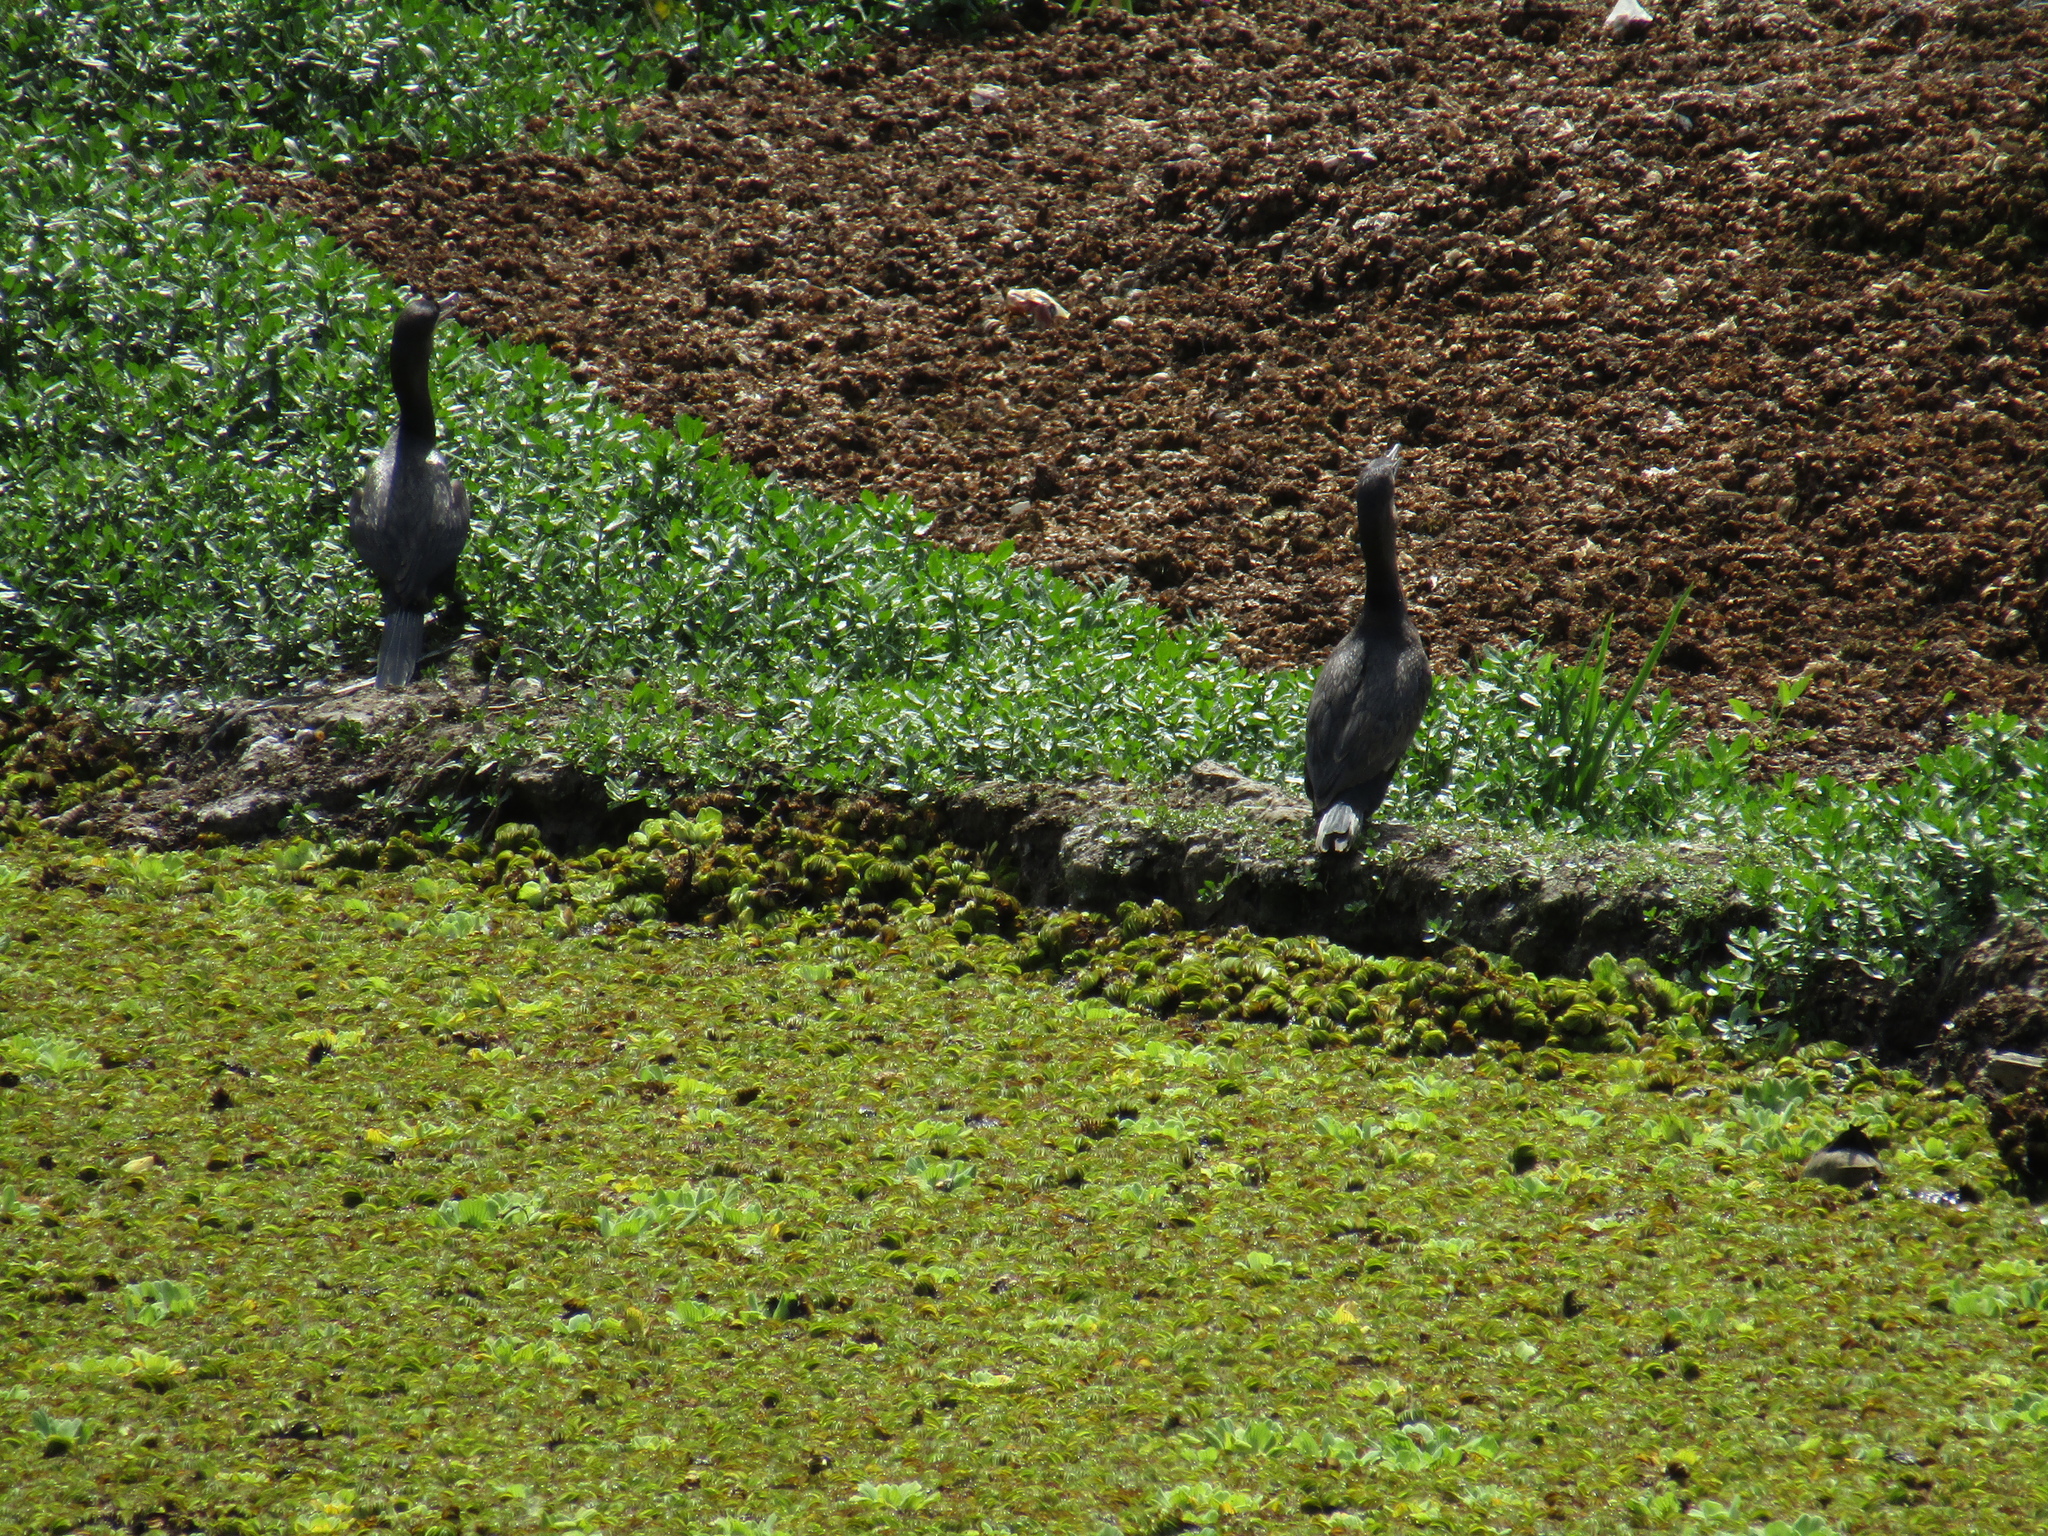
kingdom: Animalia
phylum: Chordata
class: Aves
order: Suliformes
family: Phalacrocoracidae
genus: Phalacrocorax
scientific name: Phalacrocorax brasilianus
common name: Neotropic cormorant
